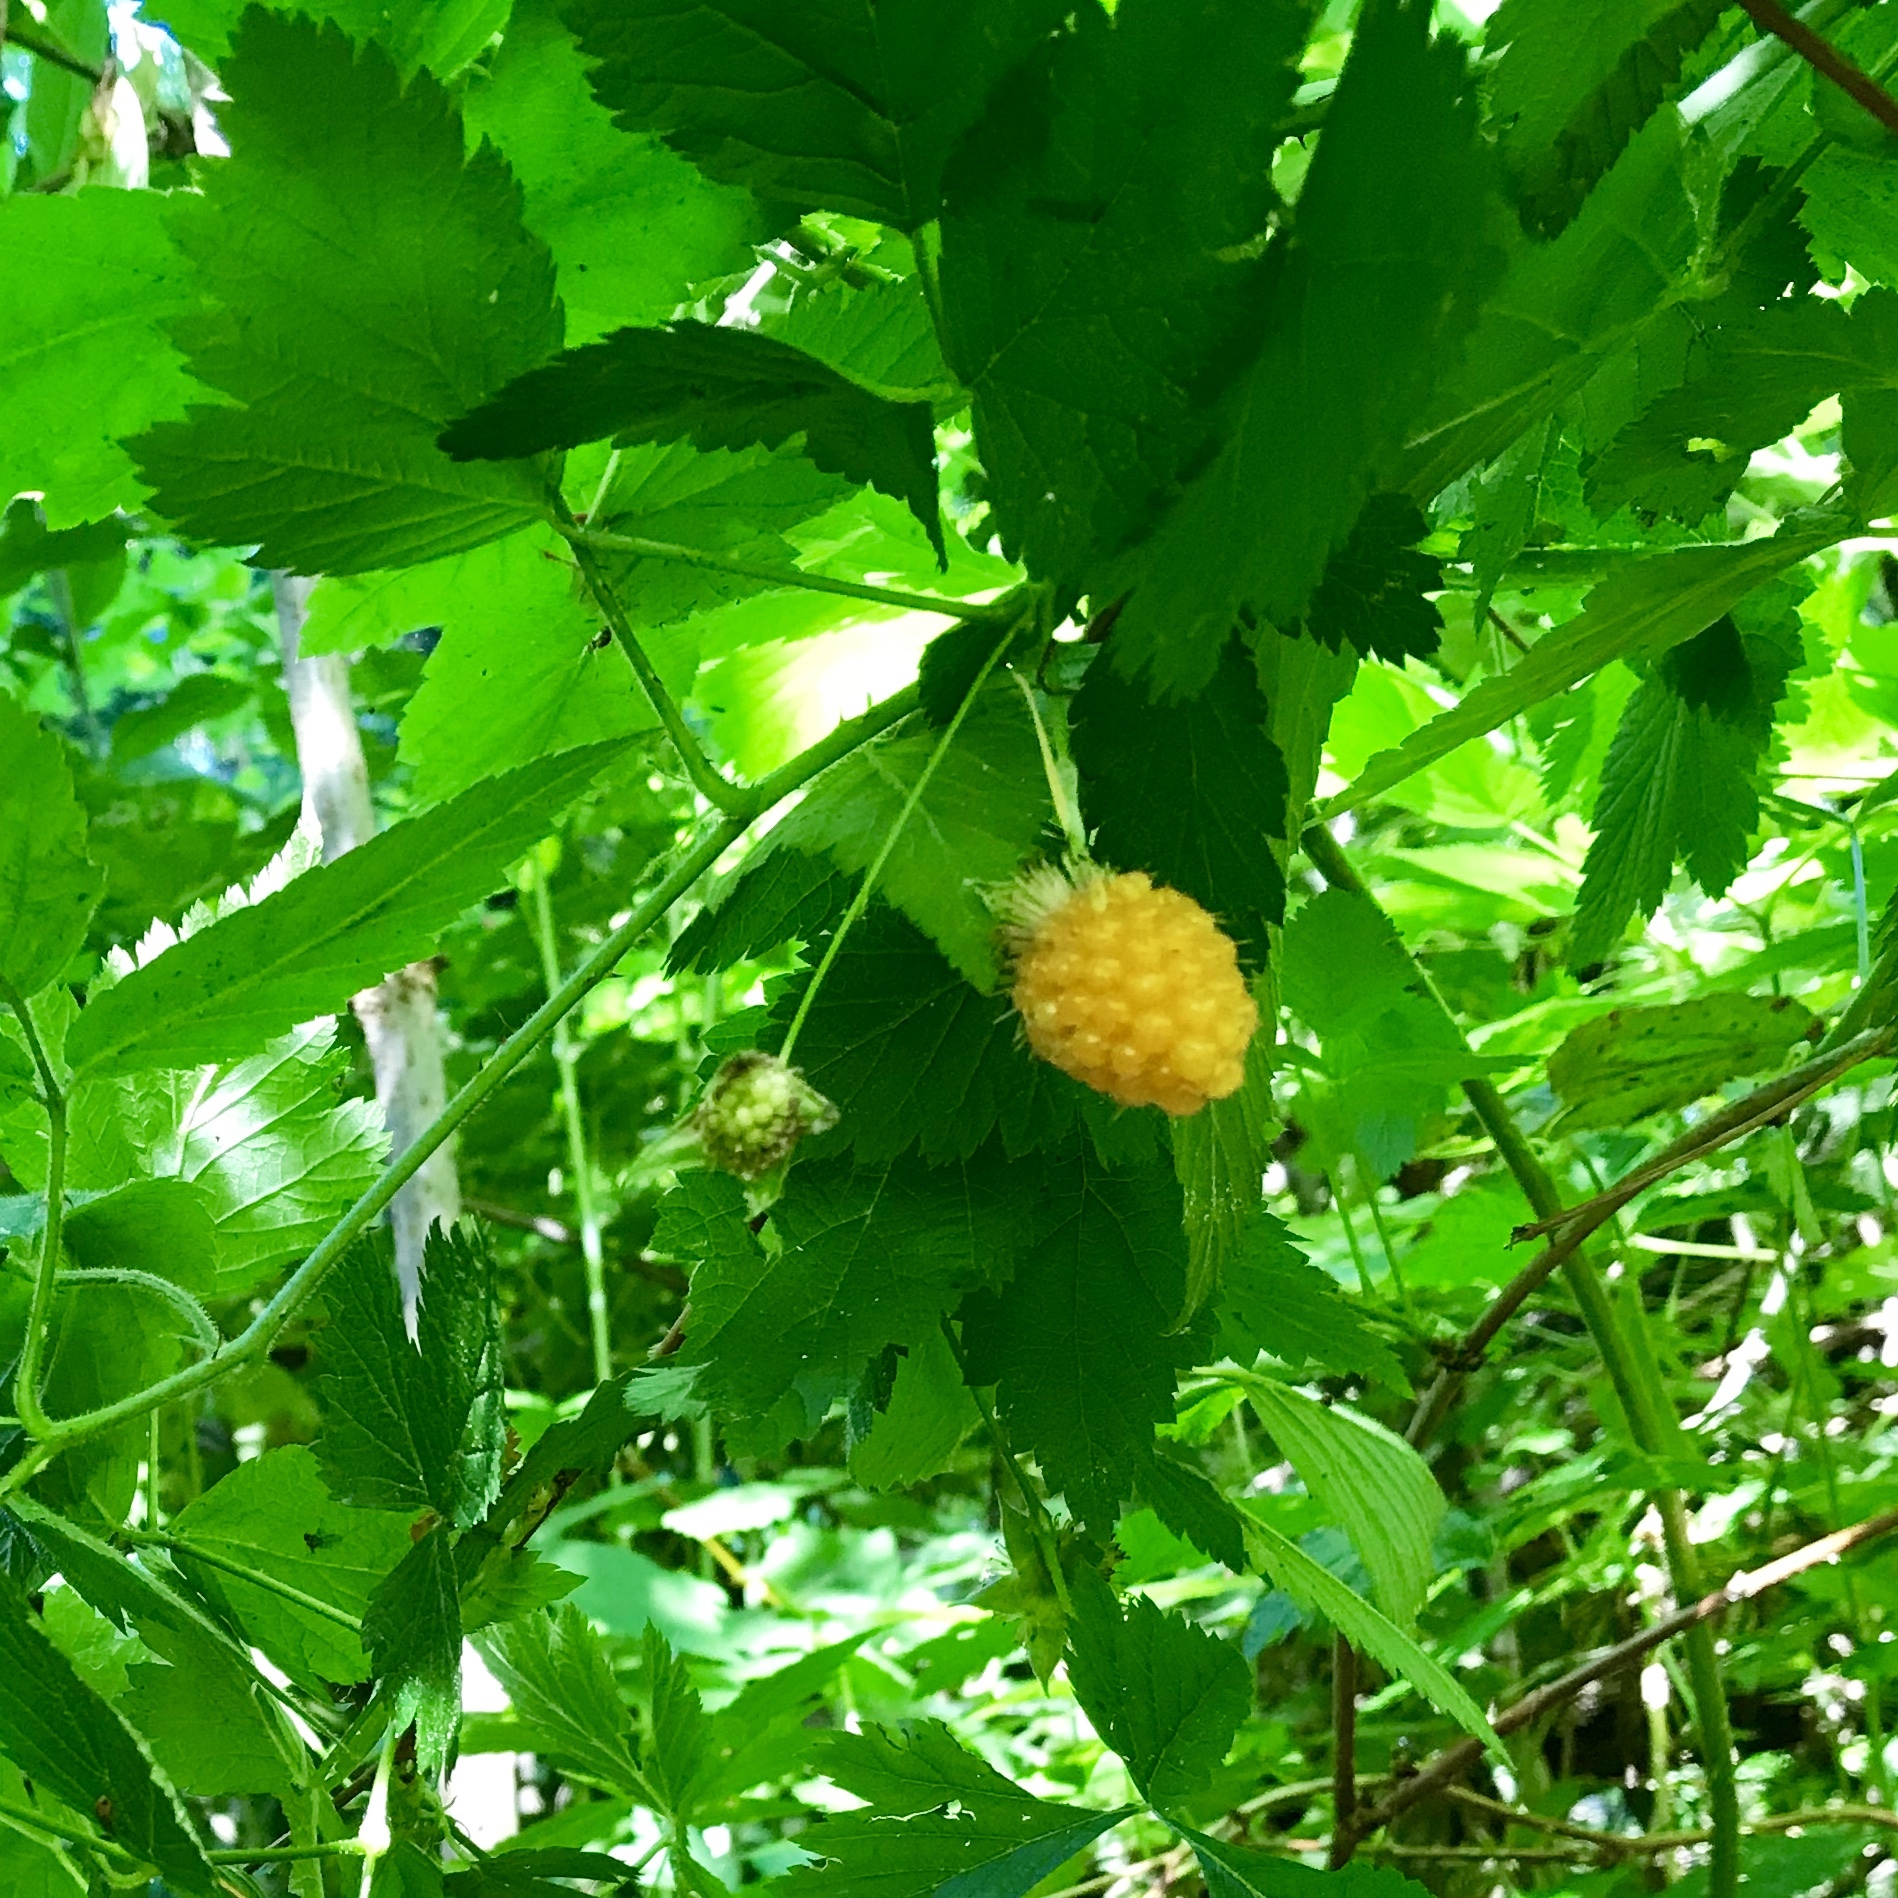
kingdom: Plantae
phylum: Tracheophyta
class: Magnoliopsida
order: Rosales
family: Rosaceae
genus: Rubus
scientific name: Rubus spectabilis
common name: Salmonberry
